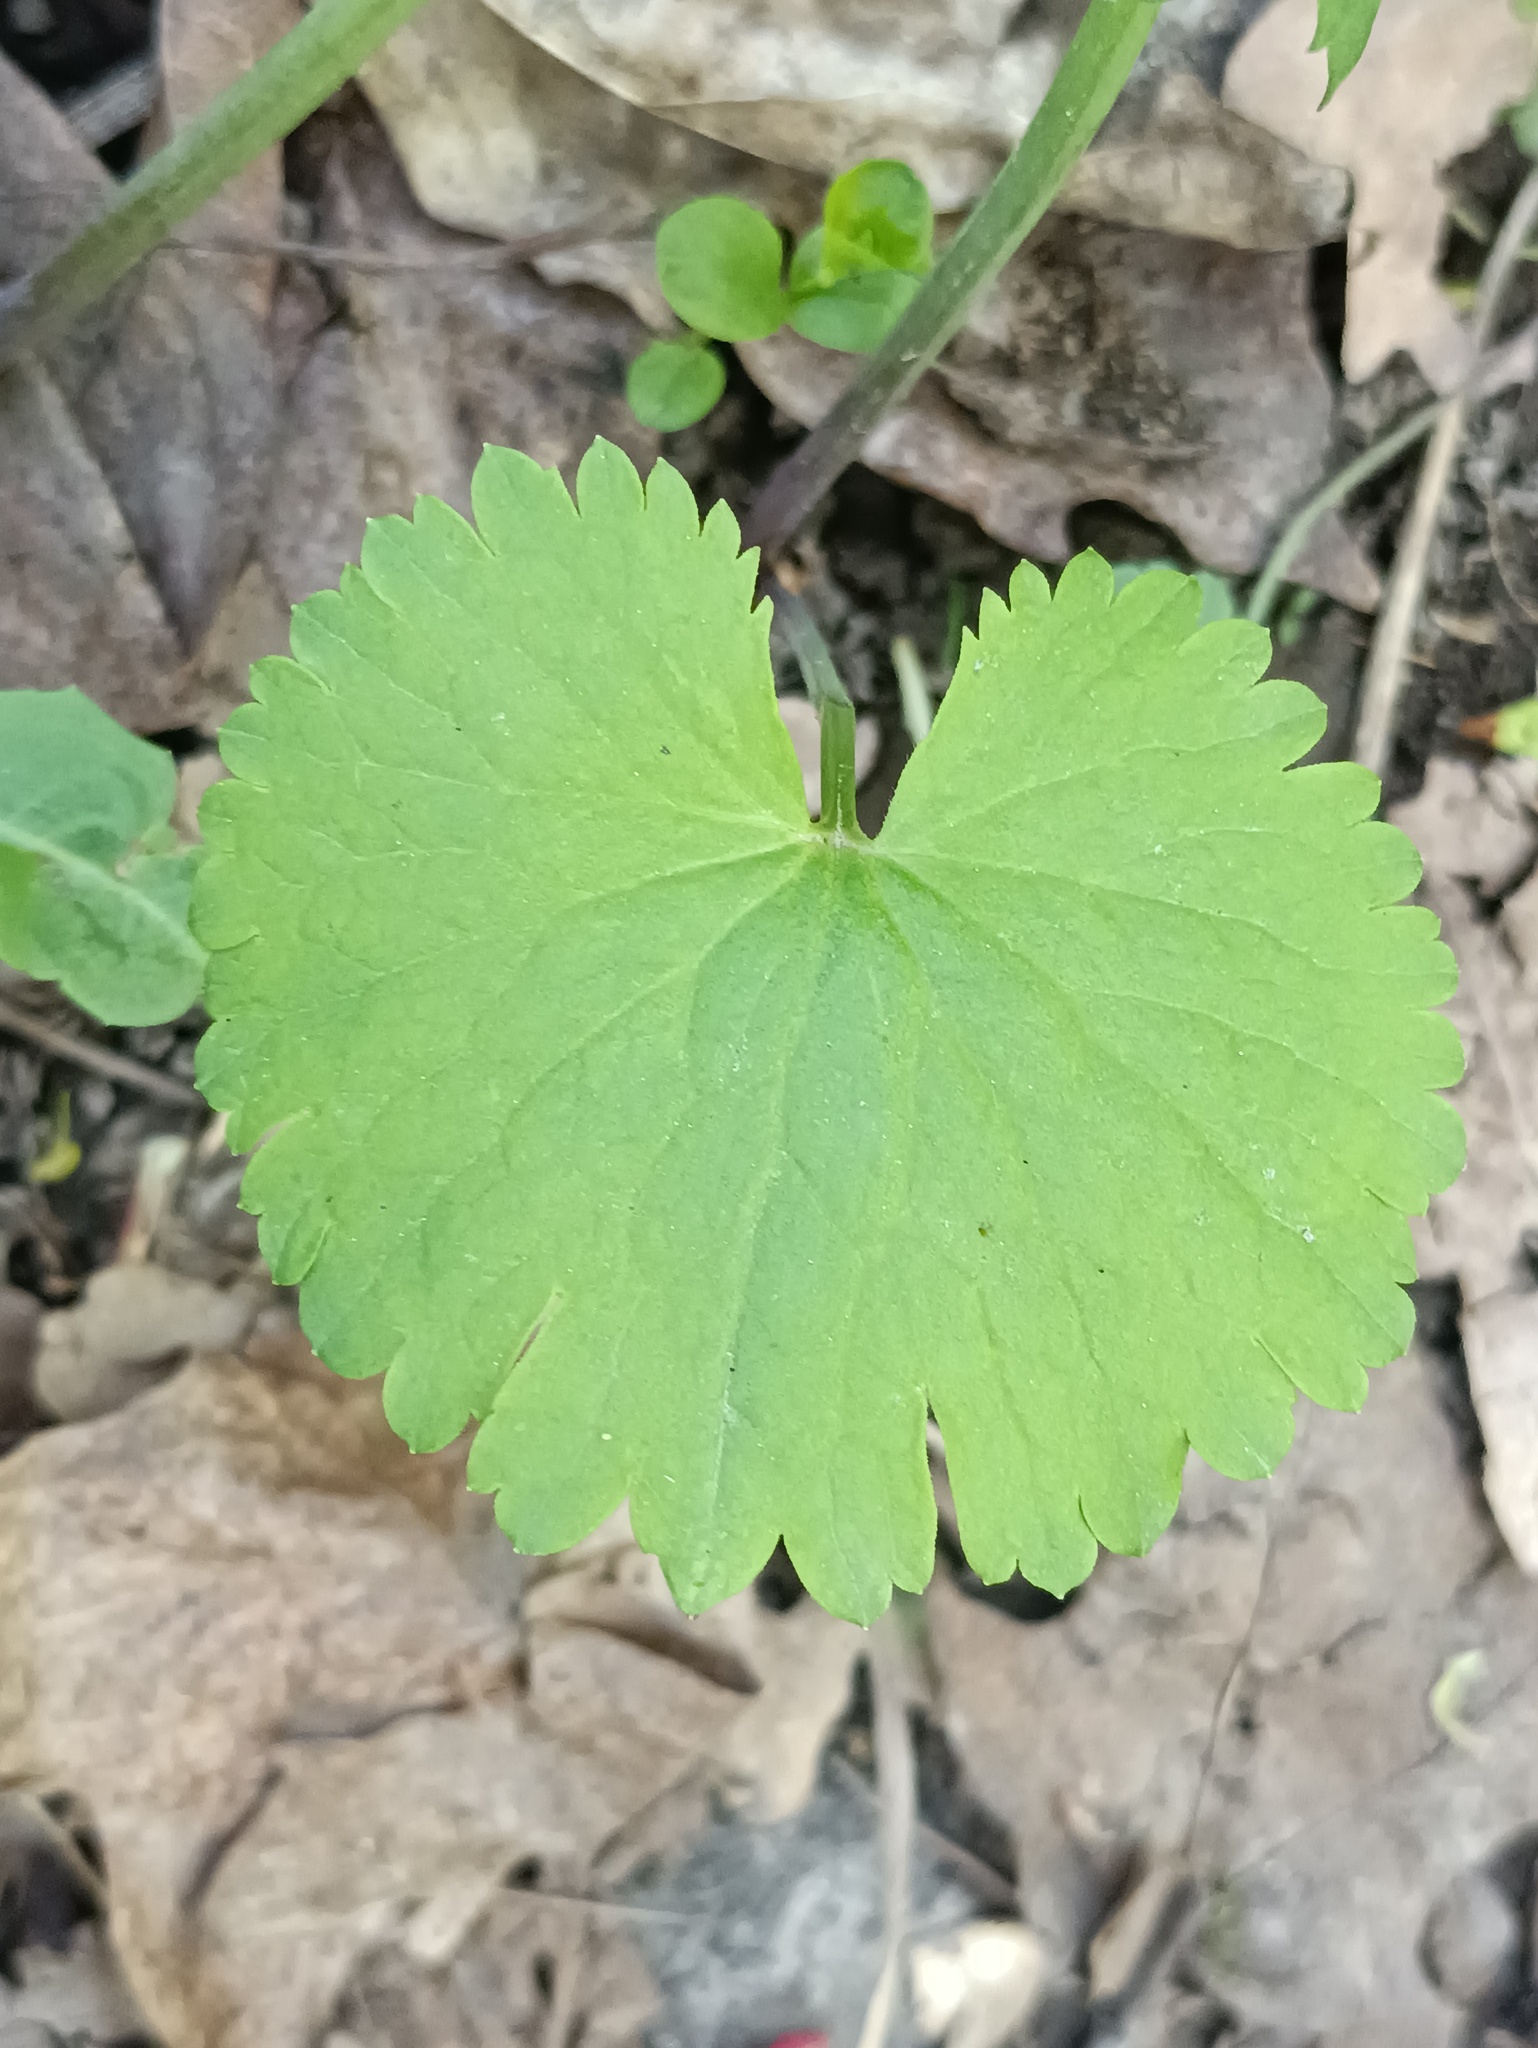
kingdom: Plantae
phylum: Tracheophyta
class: Magnoliopsida
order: Ranunculales
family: Ranunculaceae
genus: Ranunculus
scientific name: Ranunculus cassubicus
